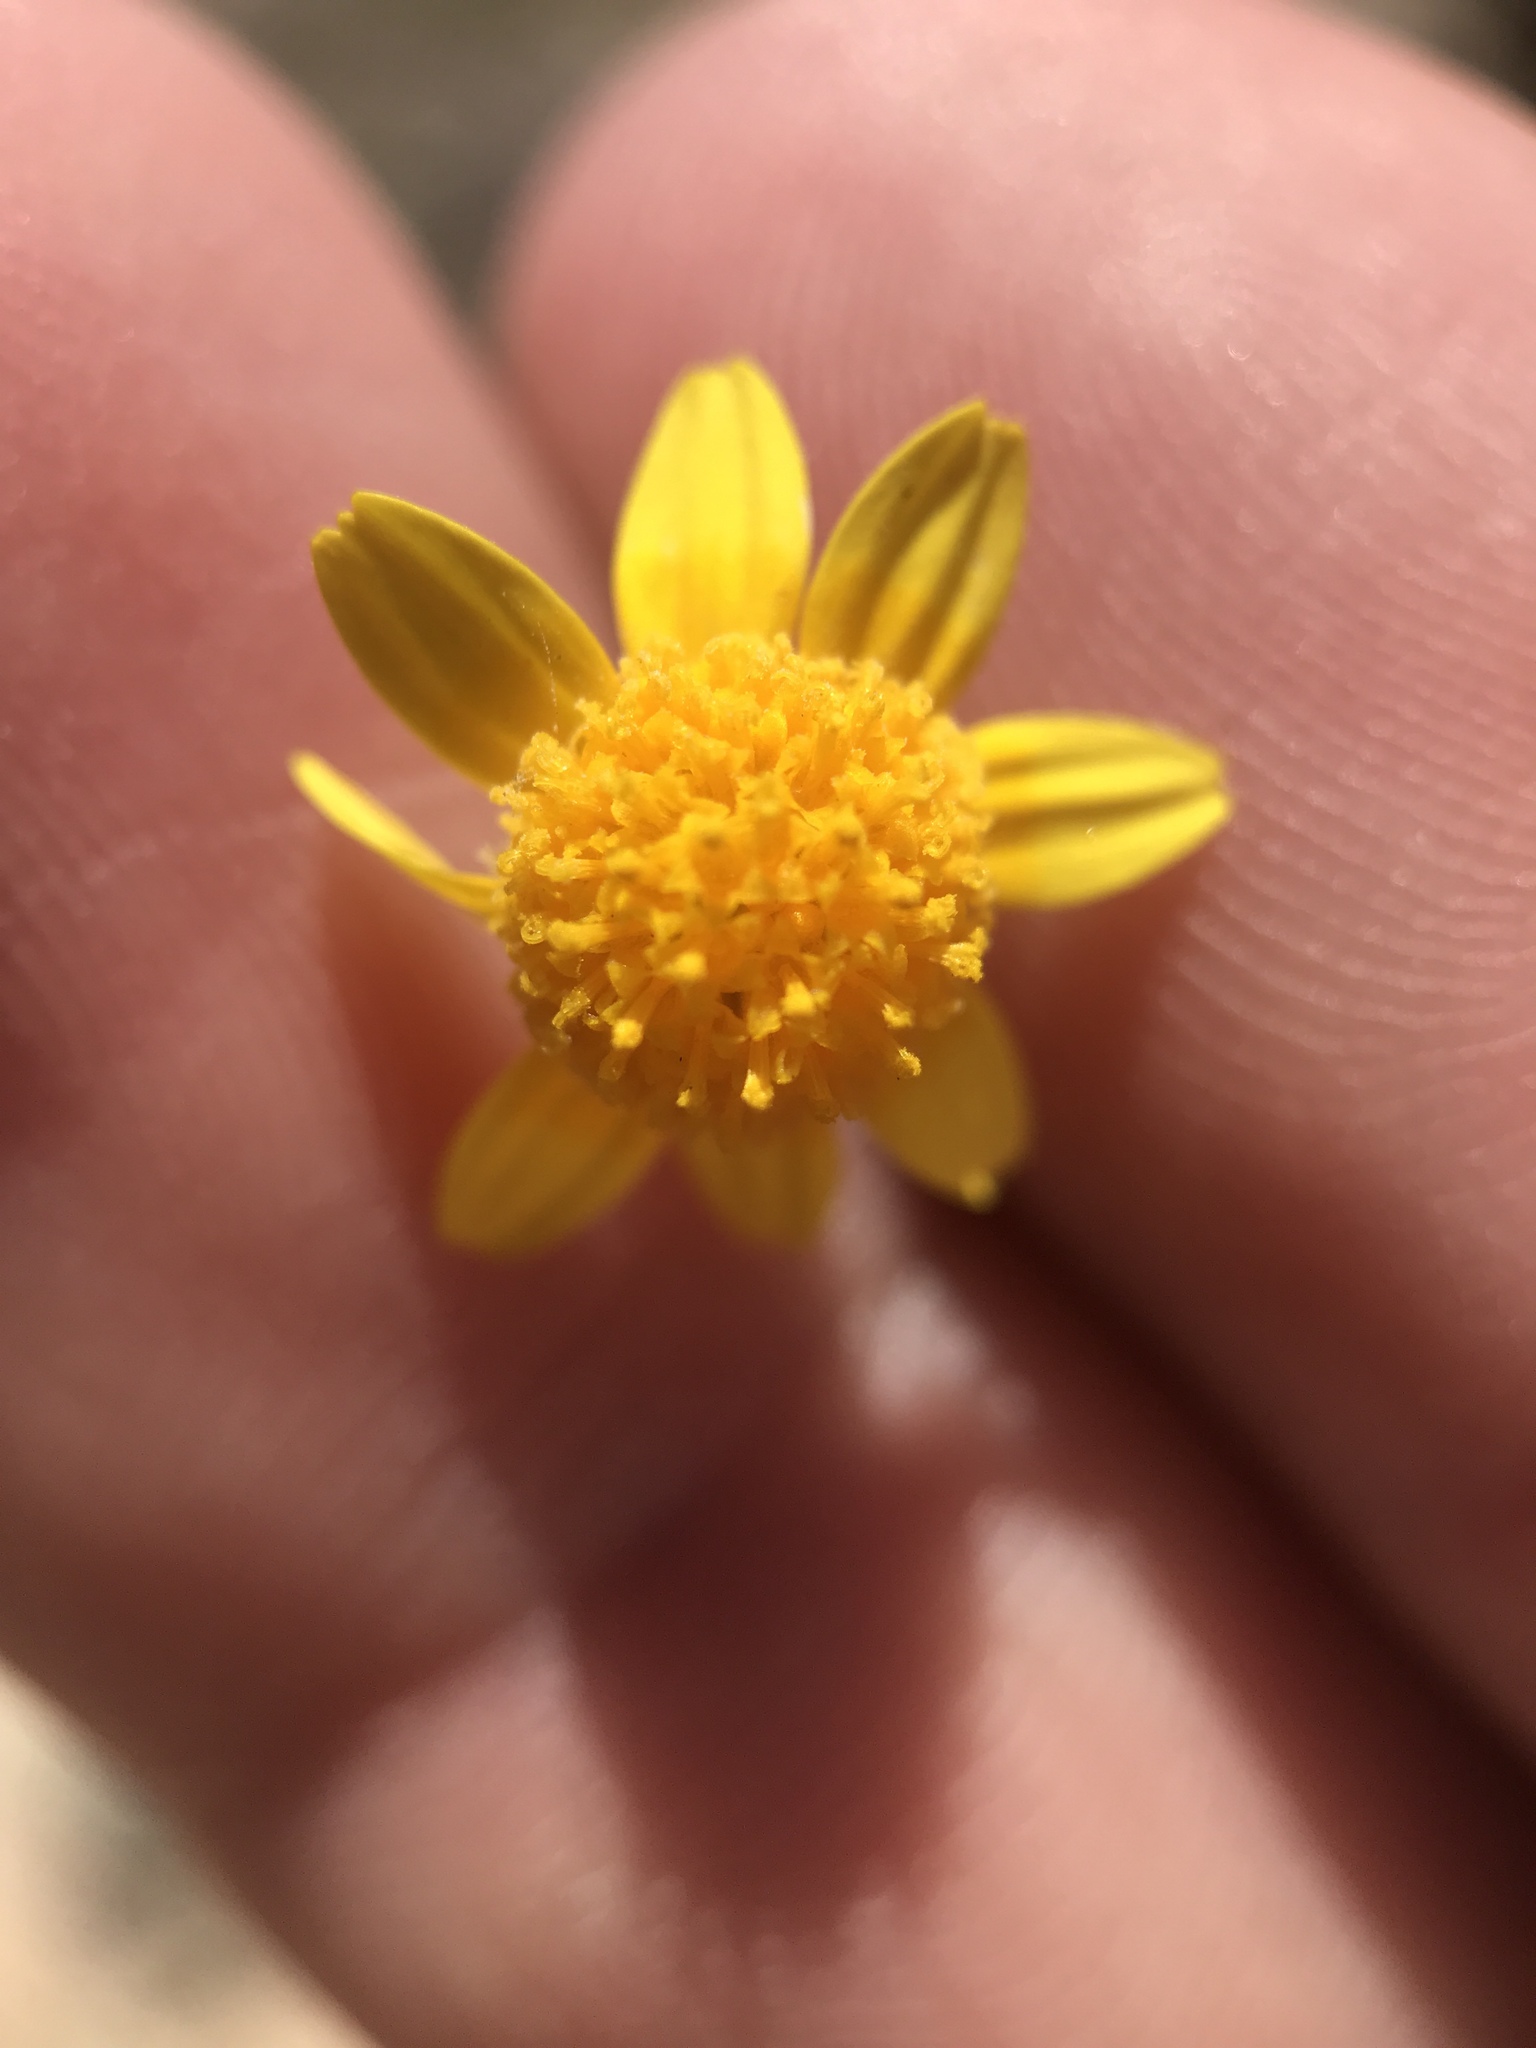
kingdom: Plantae
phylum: Tracheophyta
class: Magnoliopsida
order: Asterales
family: Asteraceae
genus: Lasthenia
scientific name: Lasthenia gracilis
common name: Common goldfields
